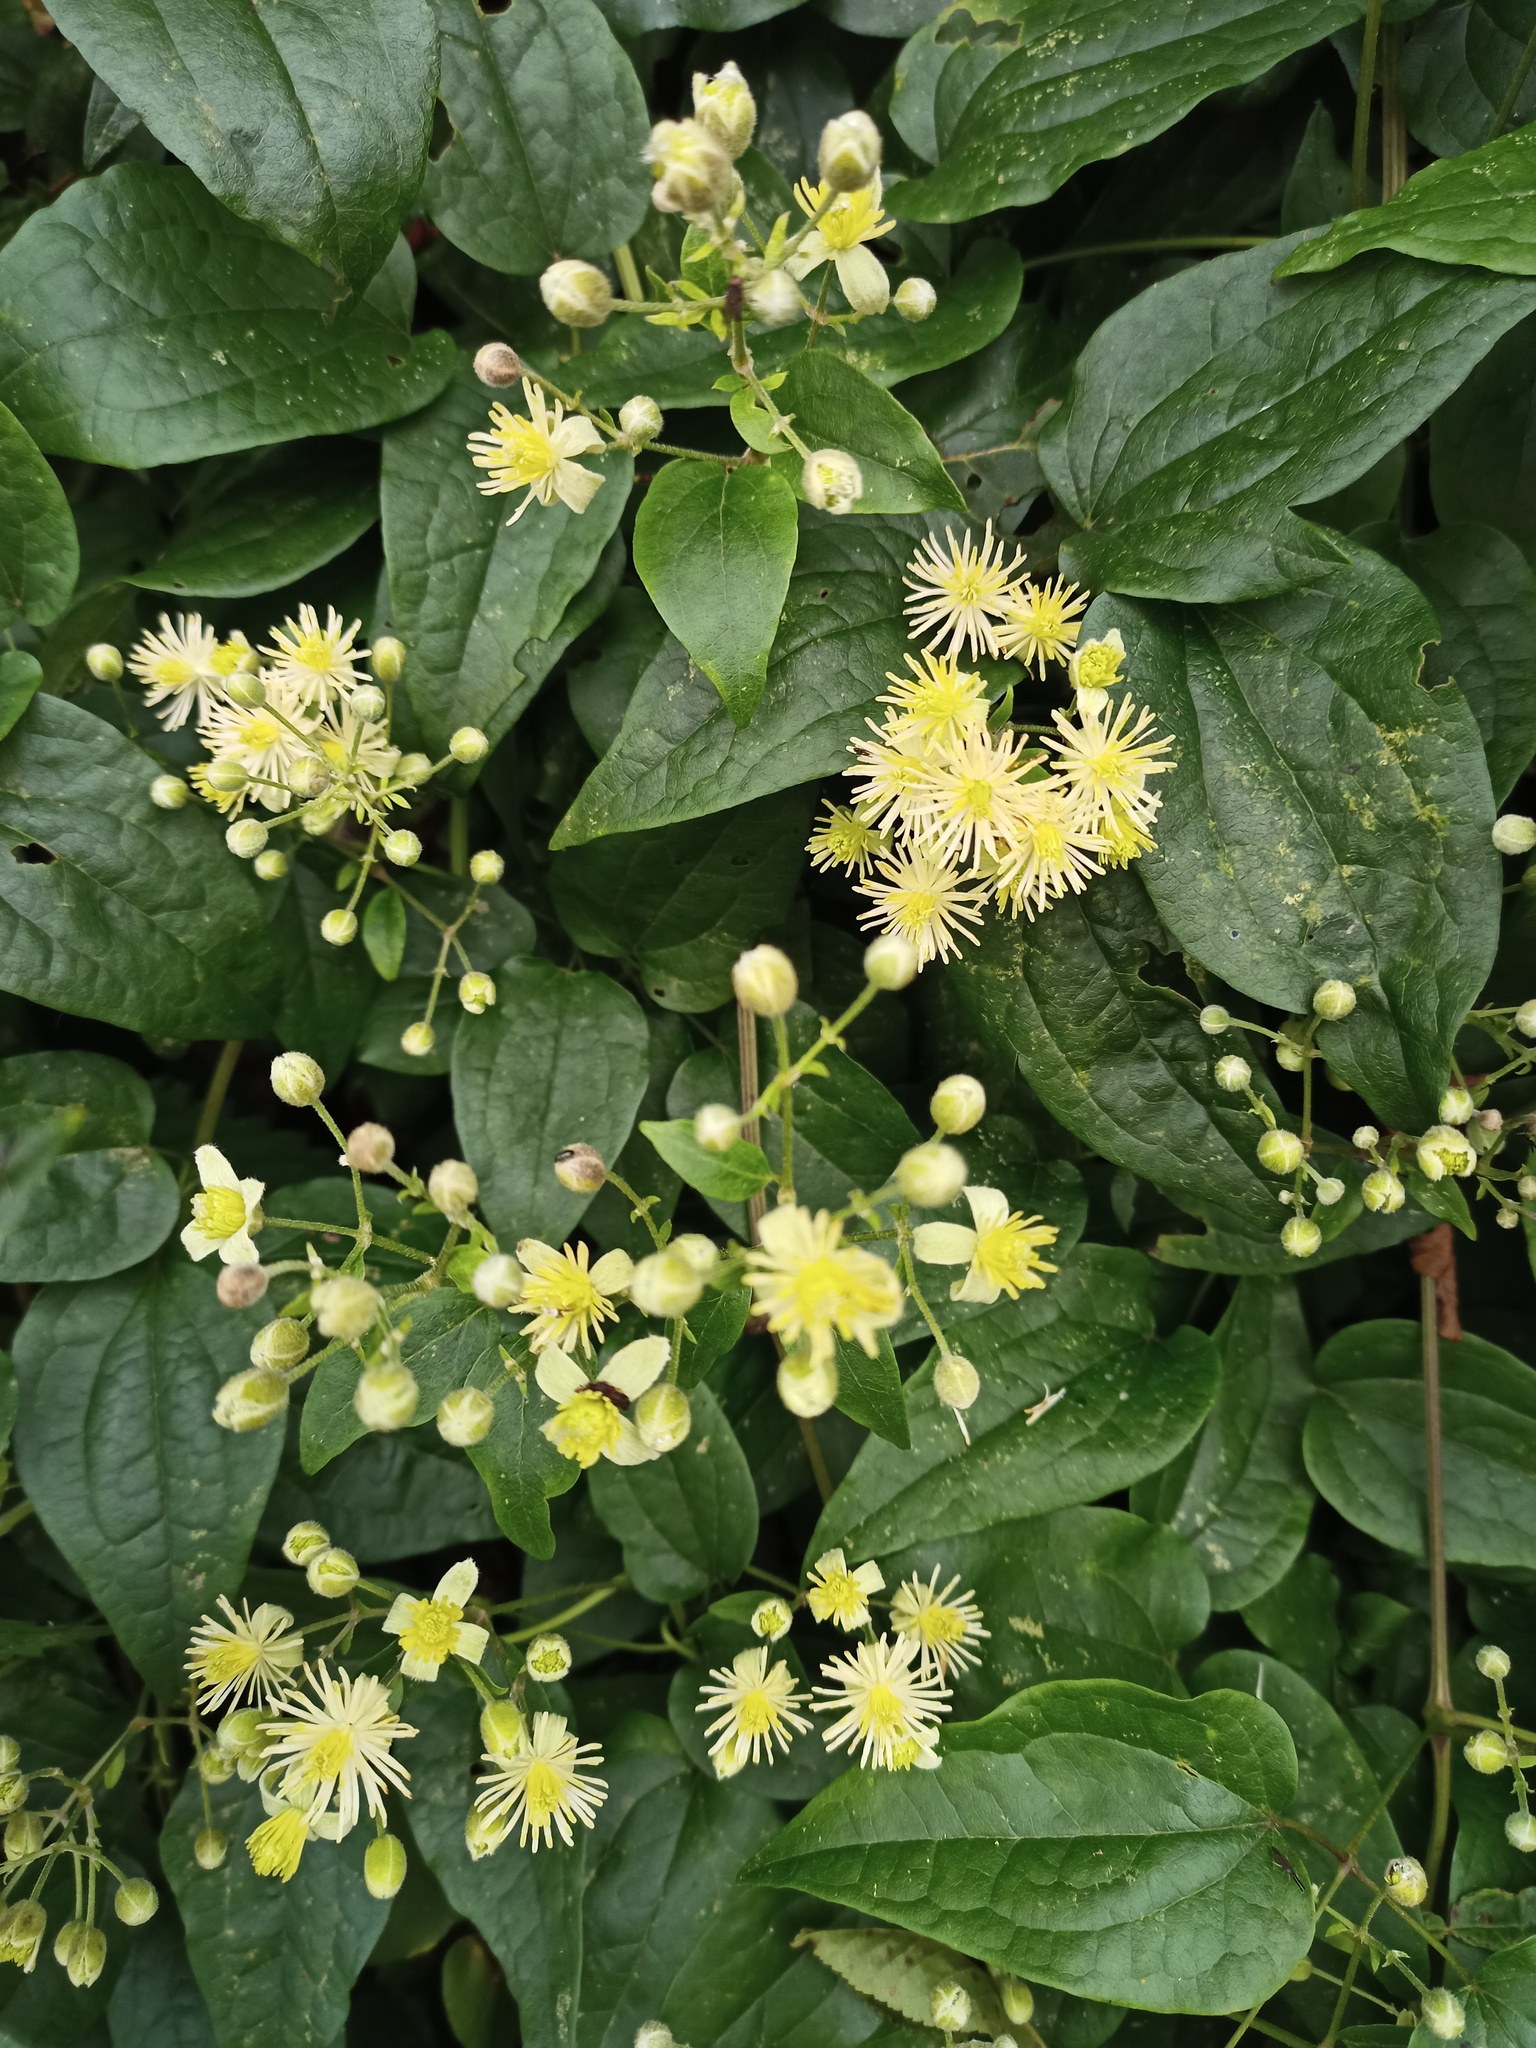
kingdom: Plantae
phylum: Tracheophyta
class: Magnoliopsida
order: Ranunculales
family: Ranunculaceae
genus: Clematis
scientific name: Clematis vitalba
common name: Evergreen clematis
